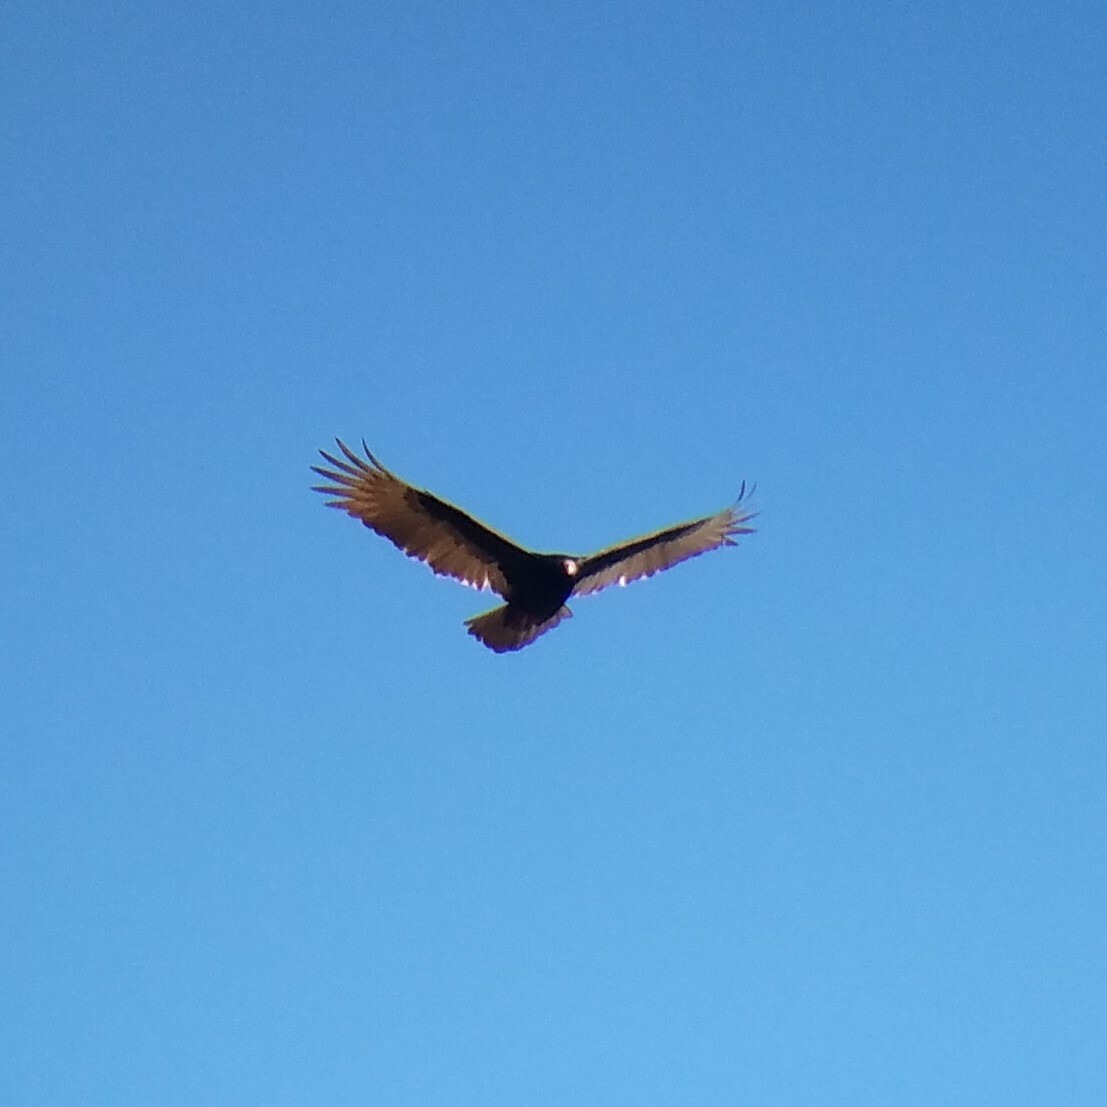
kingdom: Animalia
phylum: Chordata
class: Aves
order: Accipitriformes
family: Cathartidae
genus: Cathartes
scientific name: Cathartes aura
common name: Turkey vulture
